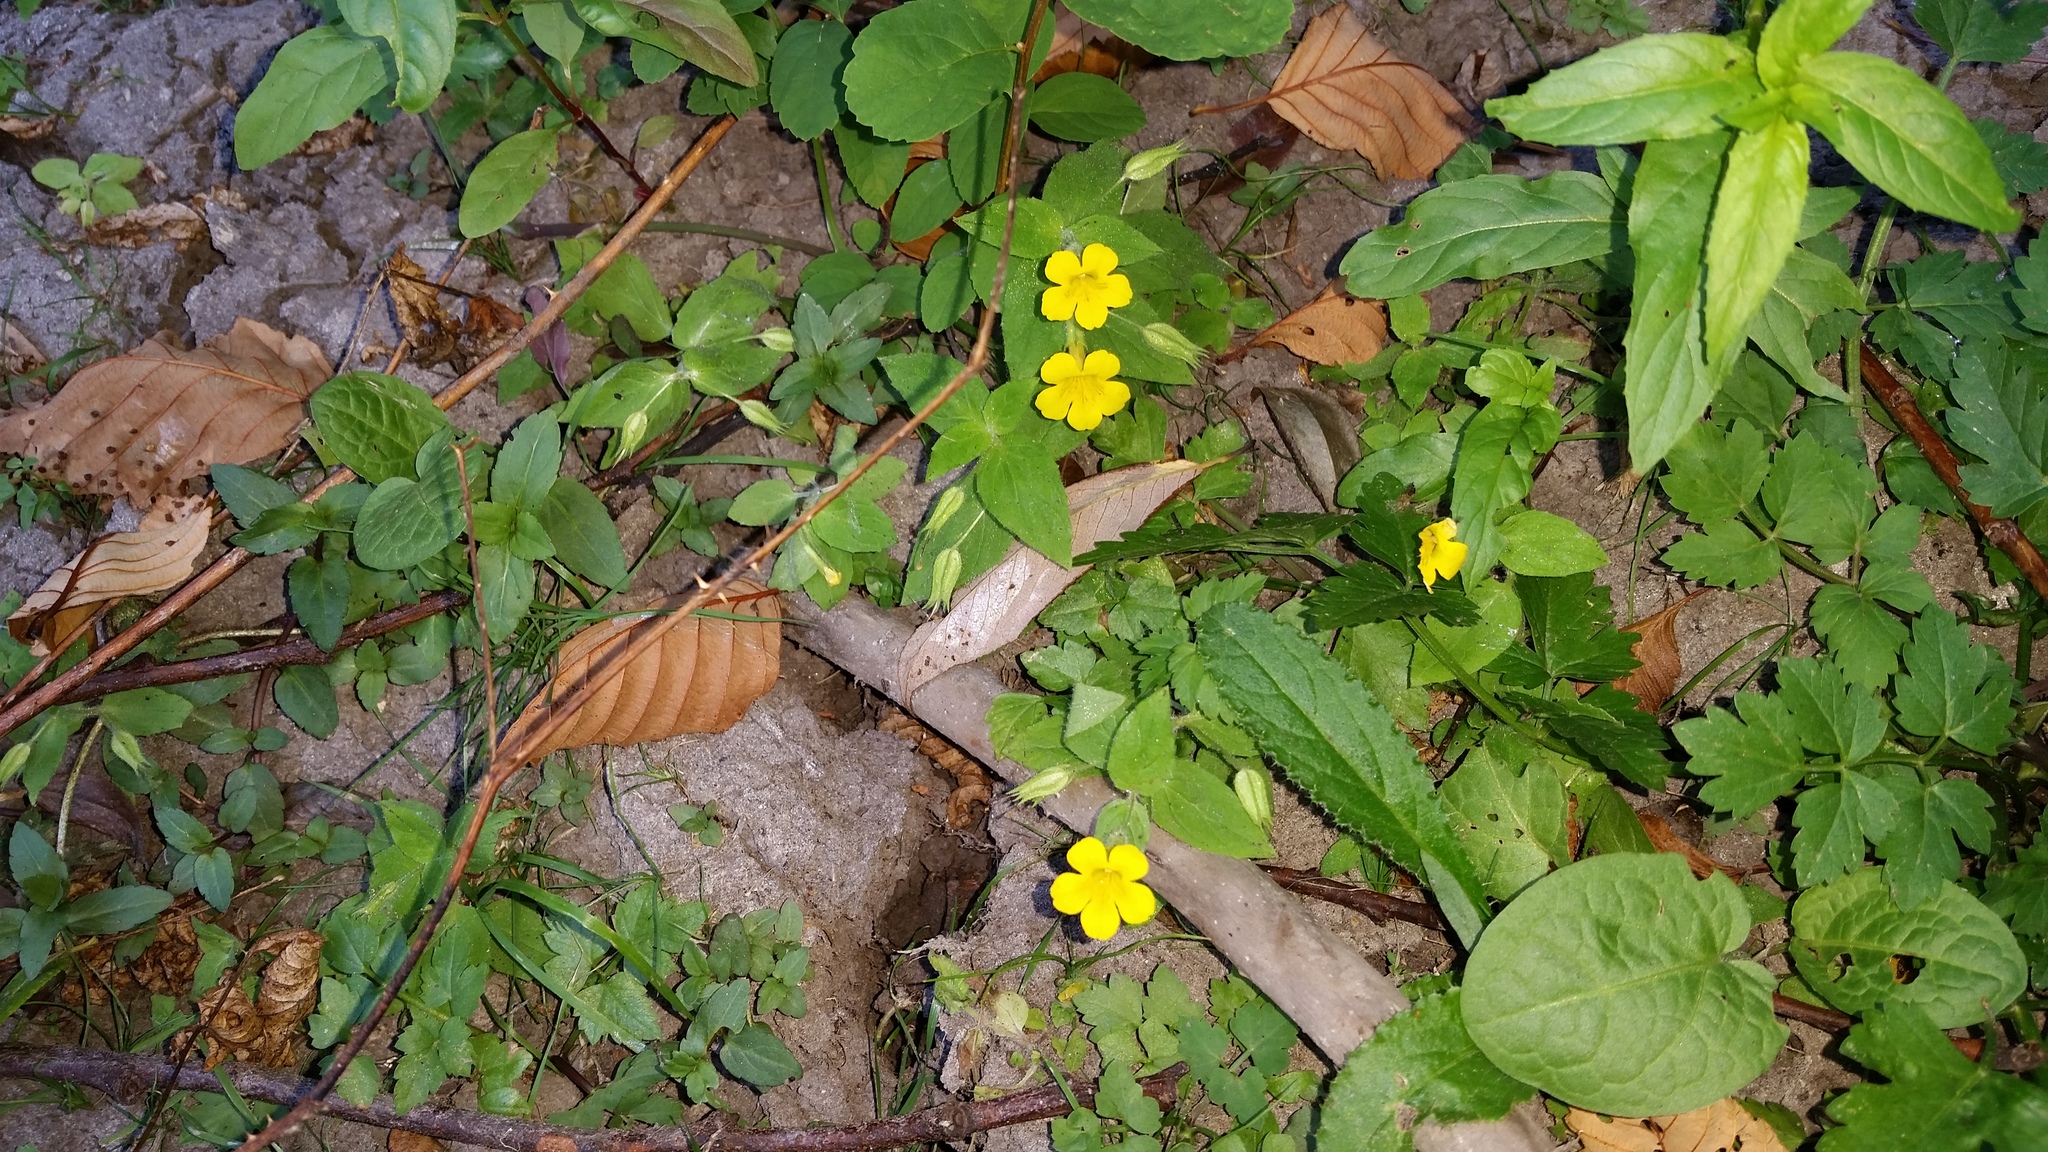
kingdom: Plantae
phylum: Tracheophyta
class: Magnoliopsida
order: Lamiales
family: Phrymaceae
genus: Erythranthe
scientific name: Erythranthe ptilota
